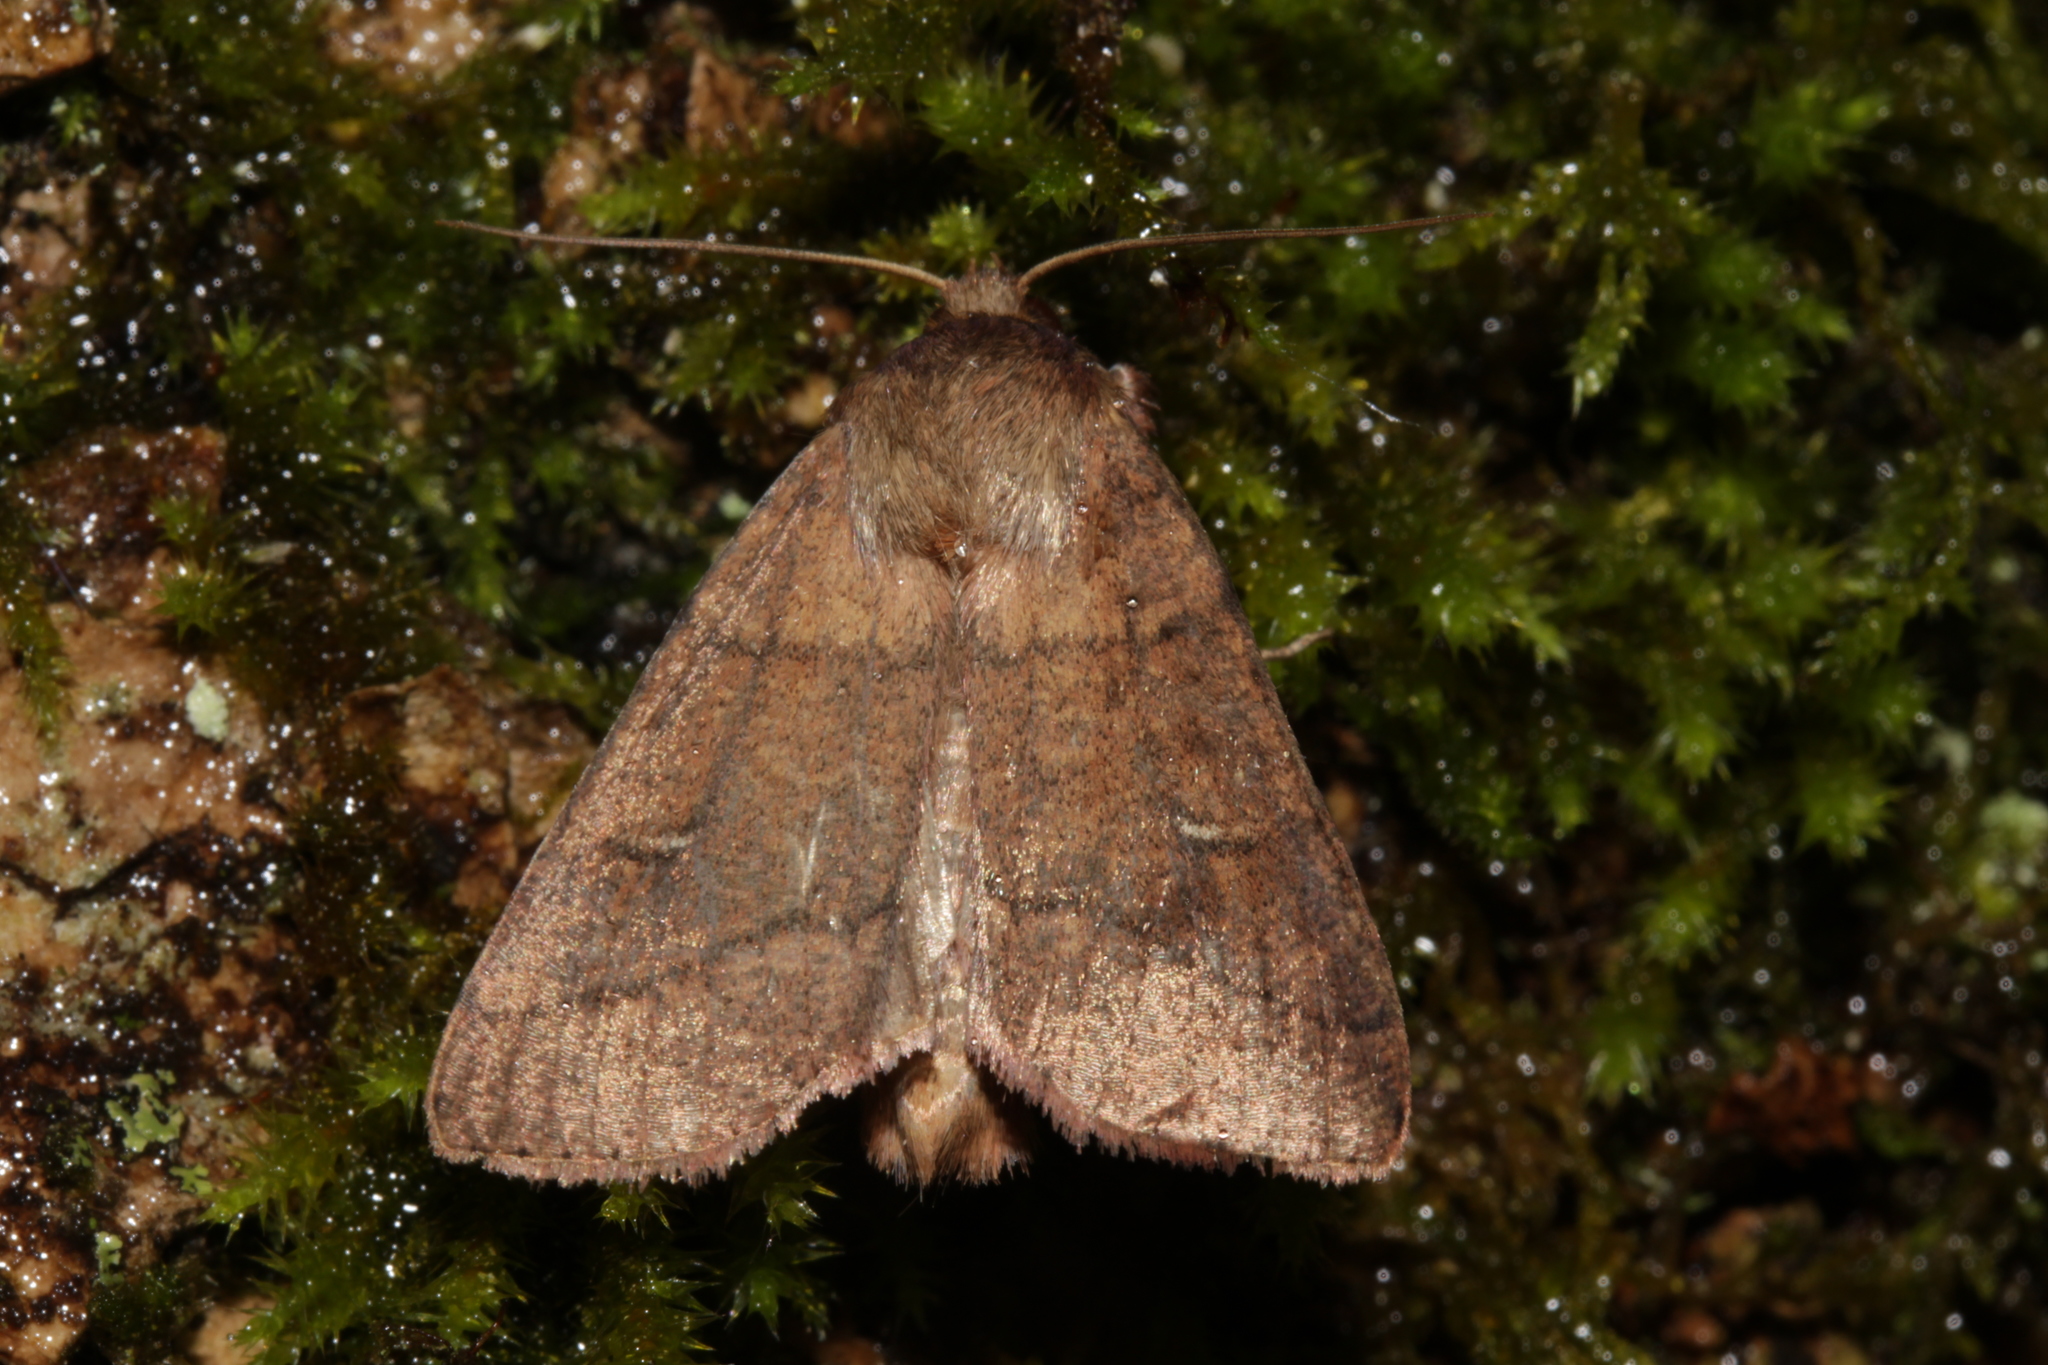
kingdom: Animalia
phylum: Arthropoda
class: Insecta
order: Lepidoptera
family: Noctuidae
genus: Mythimna
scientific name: Mythimna turca
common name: Double line
